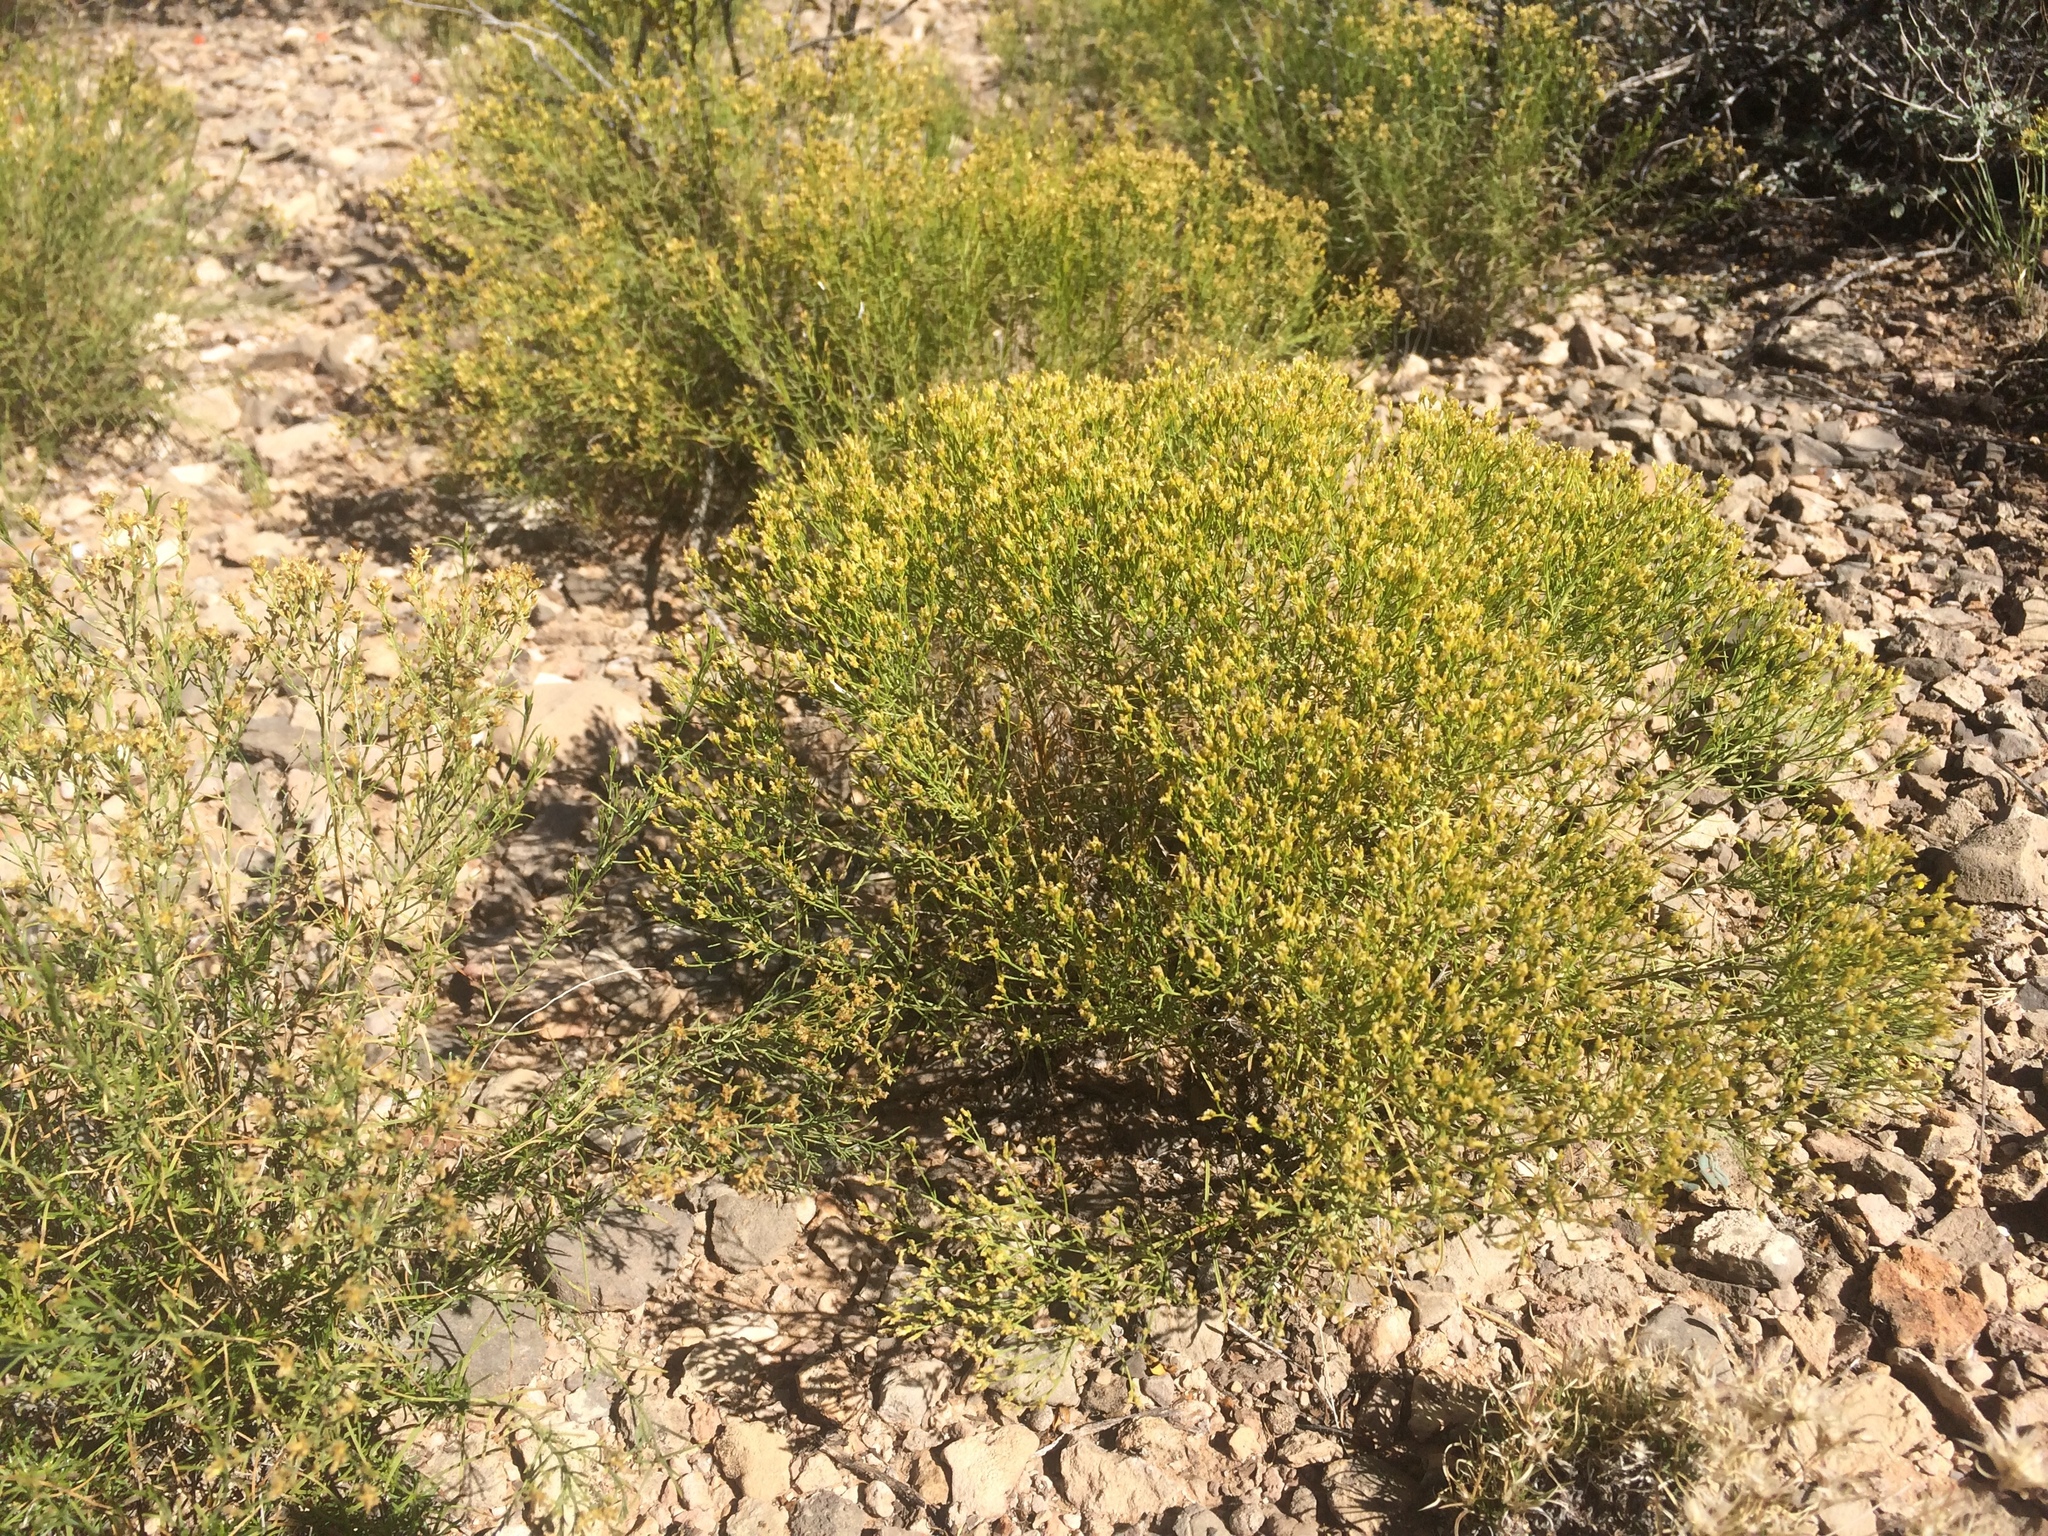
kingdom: Plantae
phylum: Tracheophyta
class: Magnoliopsida
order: Asterales
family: Asteraceae
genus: Gutierrezia
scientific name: Gutierrezia microcephala
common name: Thread snakeweed
